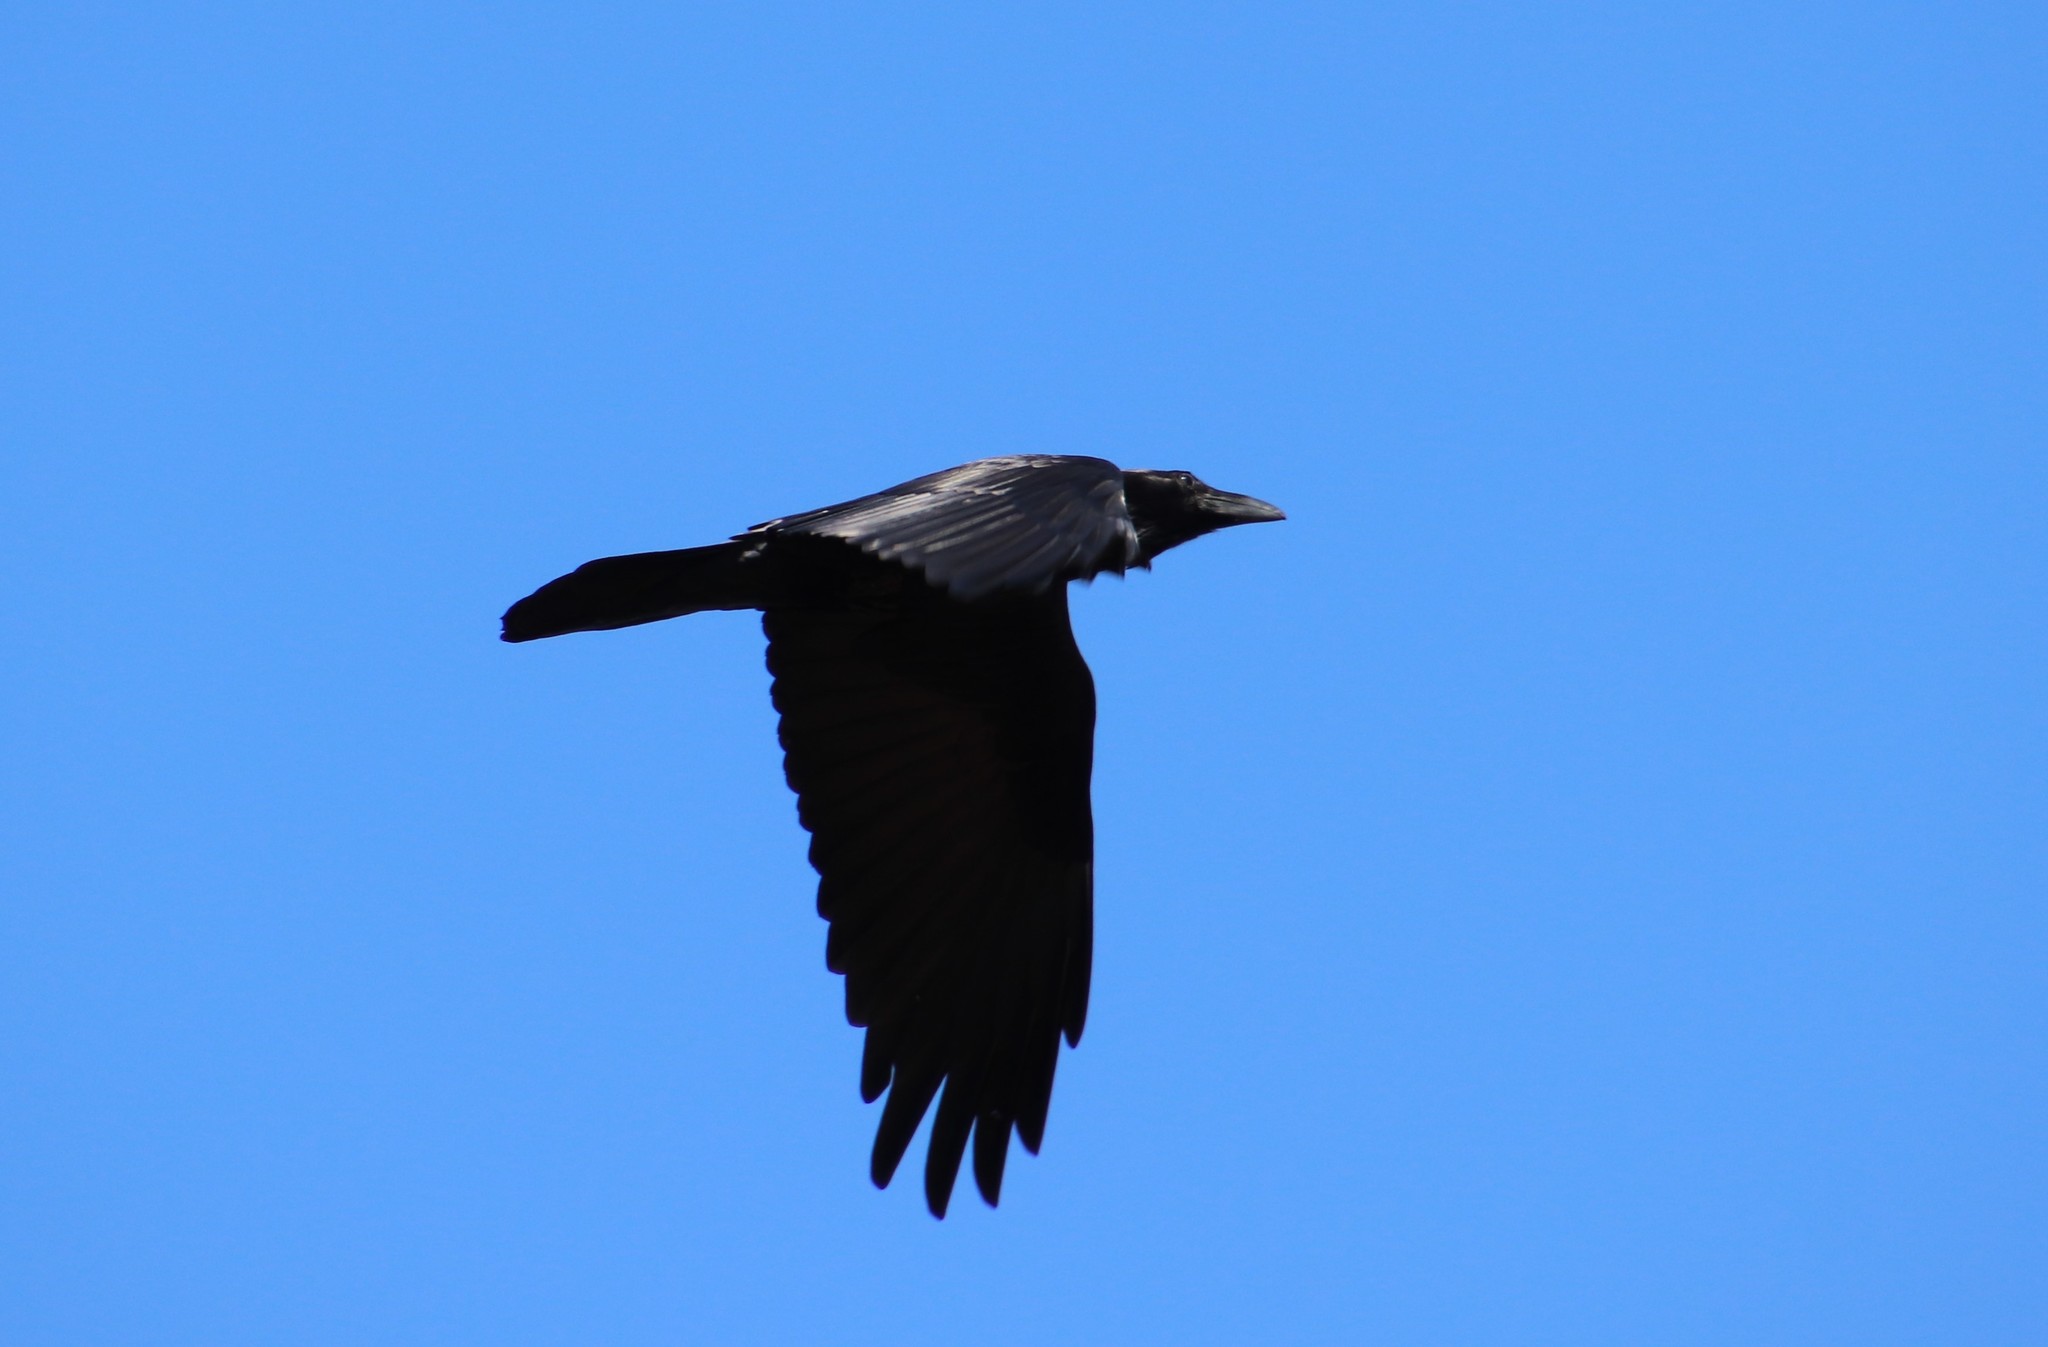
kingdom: Animalia
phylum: Chordata
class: Aves
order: Passeriformes
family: Corvidae
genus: Corvus
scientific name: Corvus corax
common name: Common raven
